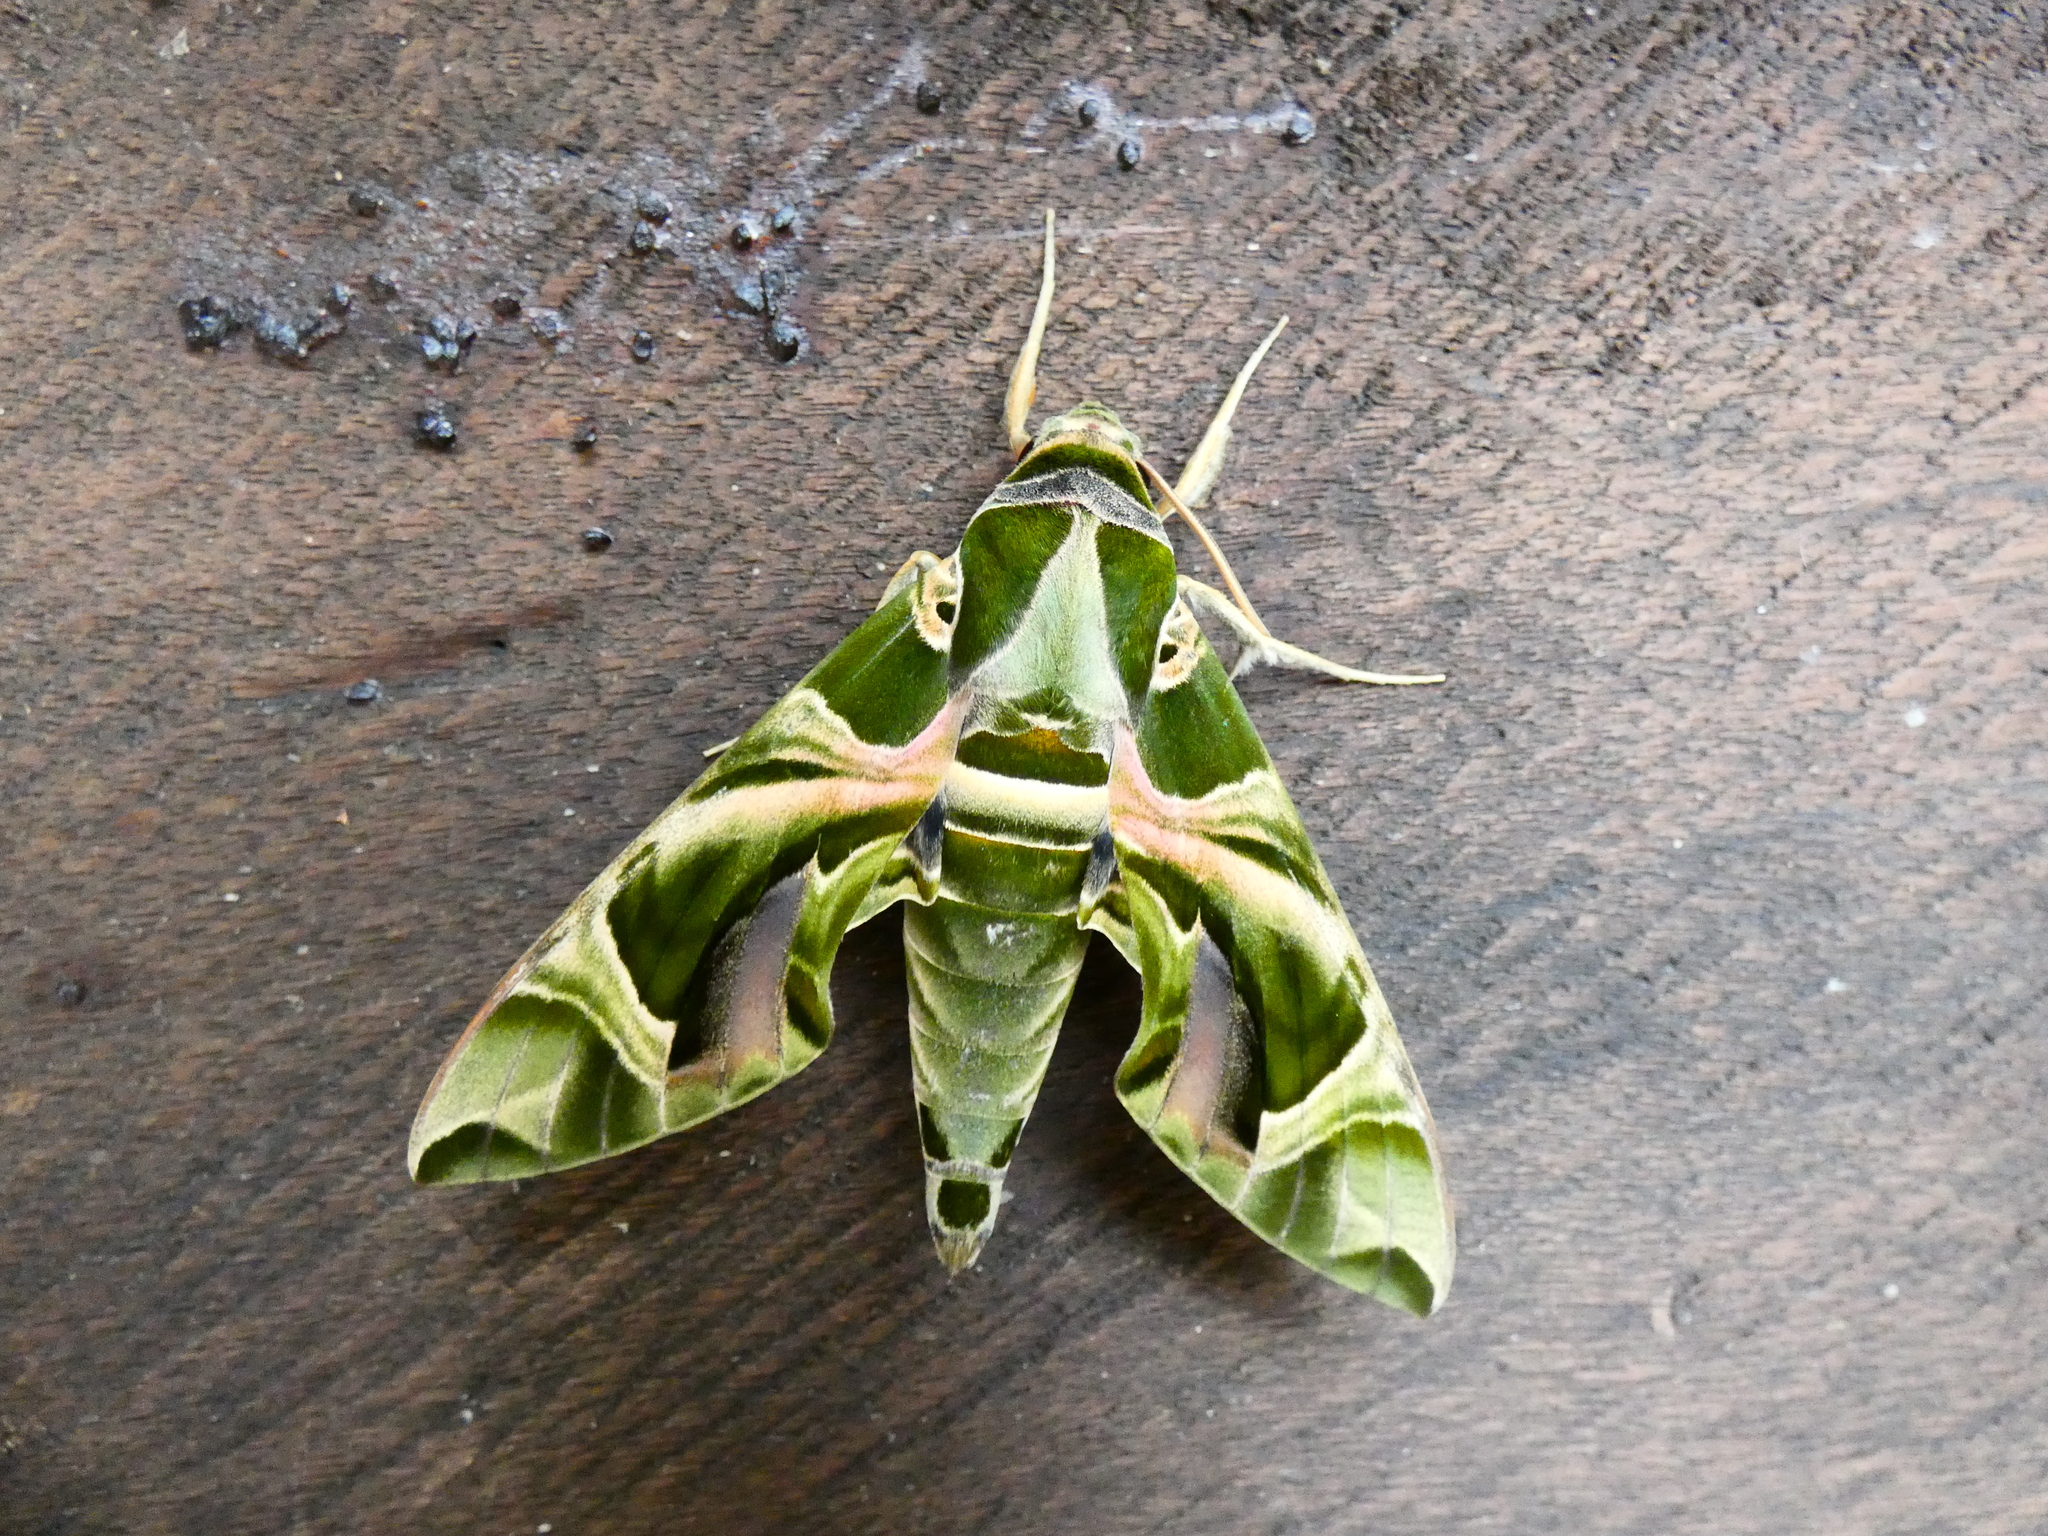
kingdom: Animalia
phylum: Arthropoda
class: Insecta
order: Lepidoptera
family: Sphingidae
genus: Daphnis
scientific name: Daphnis nerii
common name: Oleander hawk-moth
